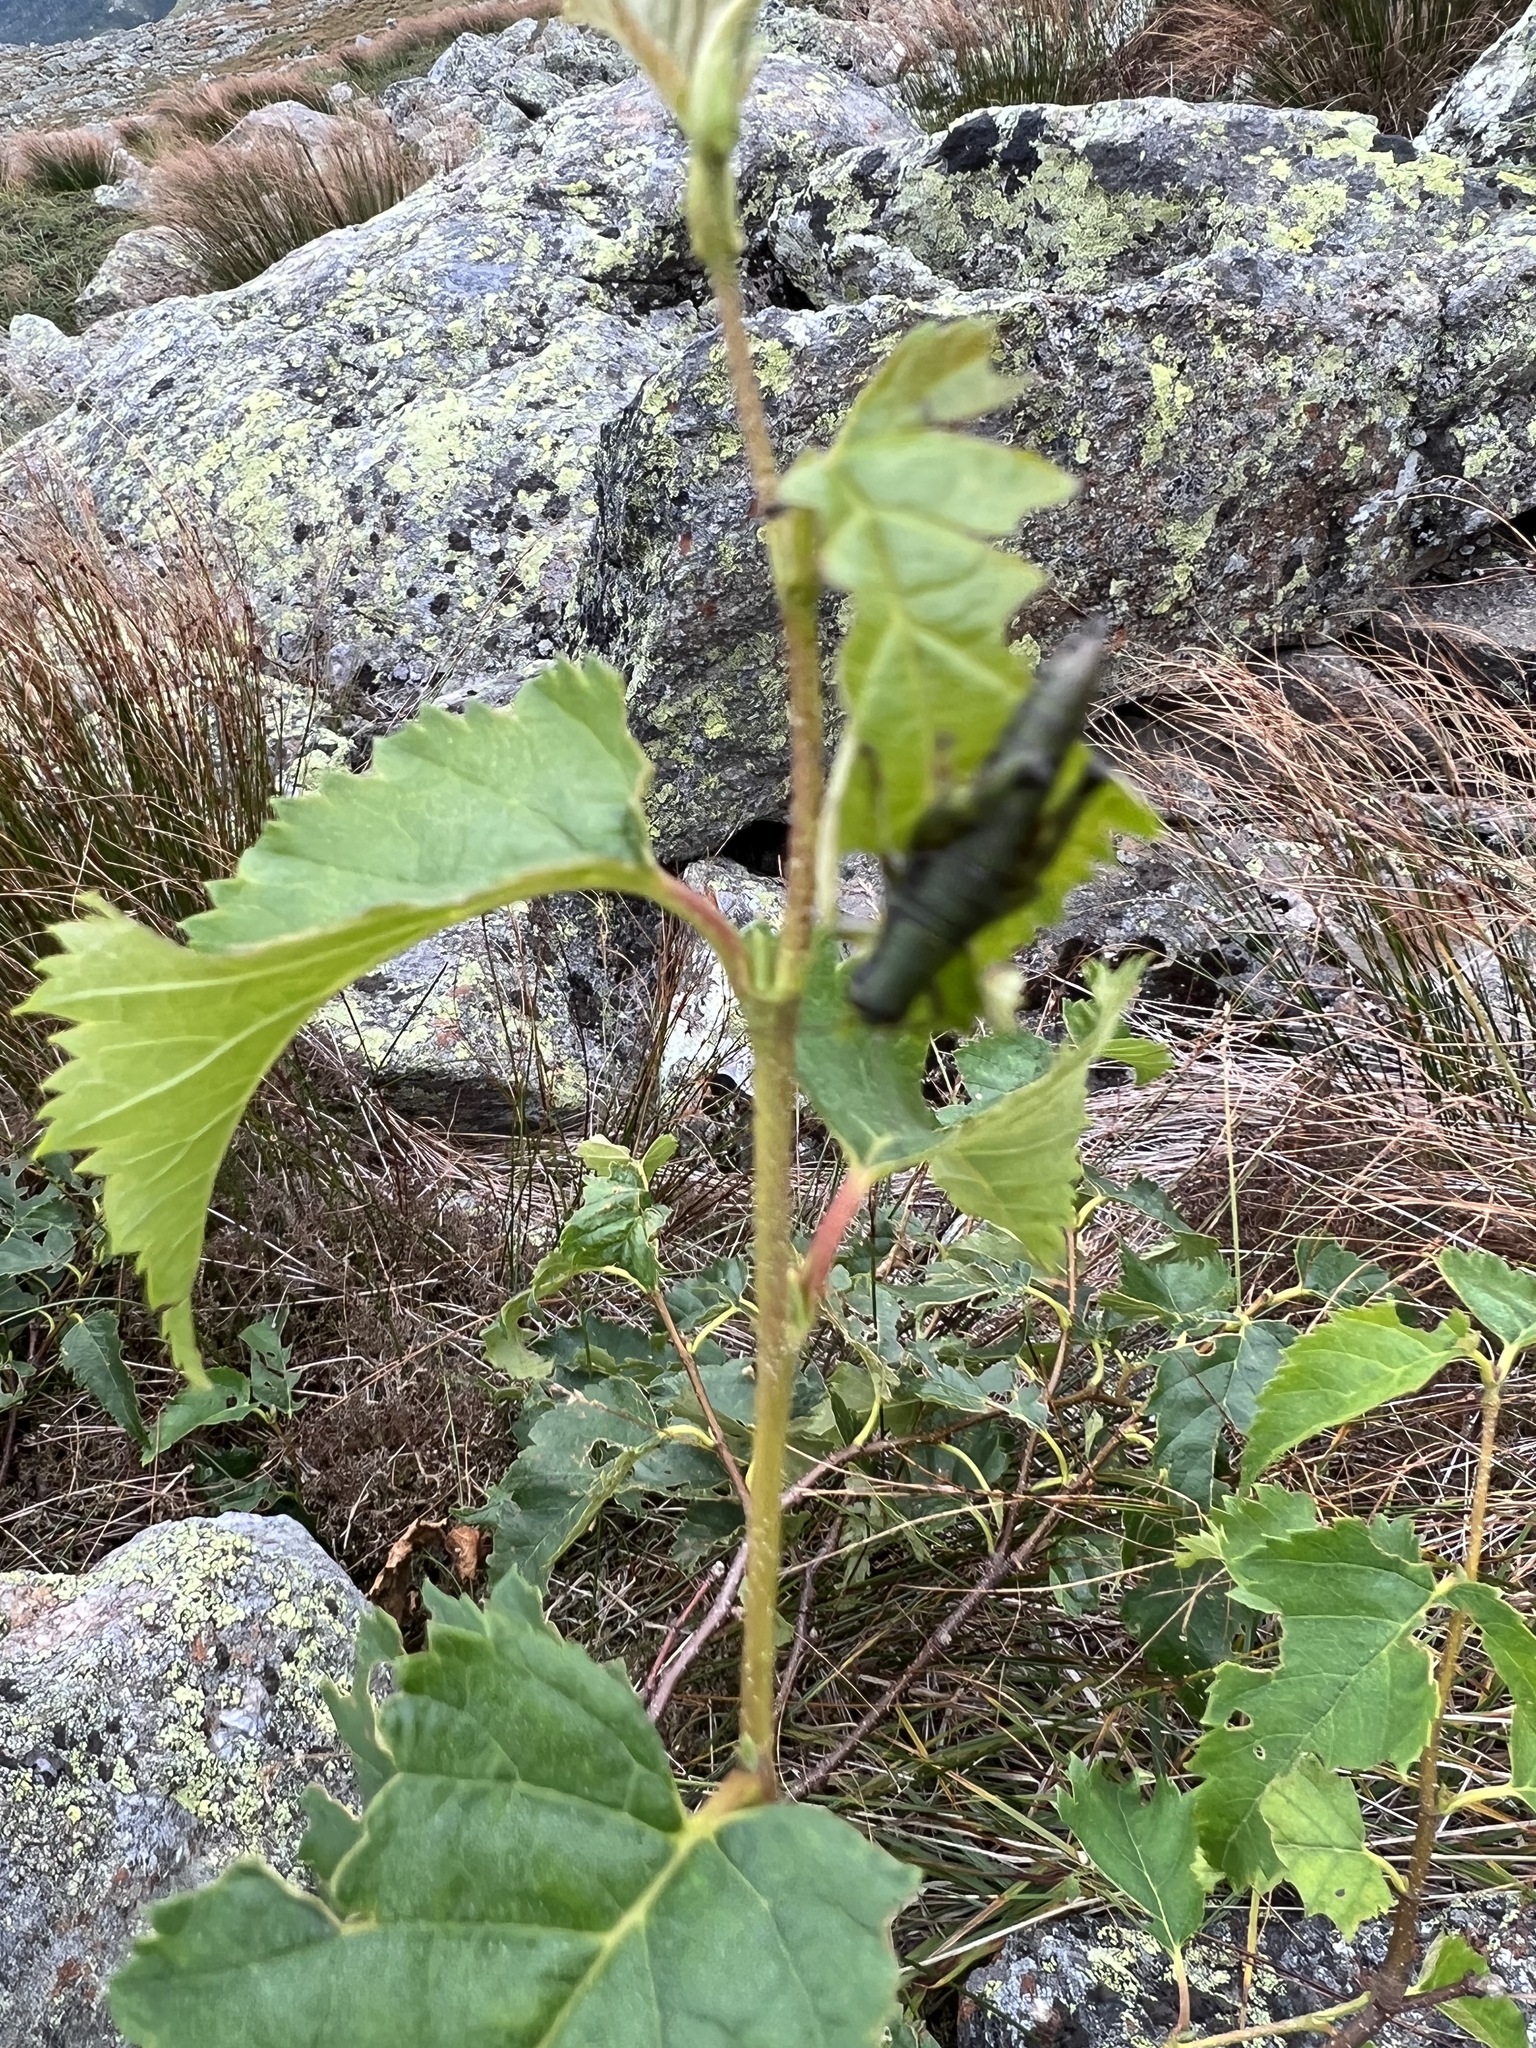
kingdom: Plantae
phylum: Tracheophyta
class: Magnoliopsida
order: Fagales
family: Betulaceae
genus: Betula
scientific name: Betula cordifolia
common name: Mountain white birch
